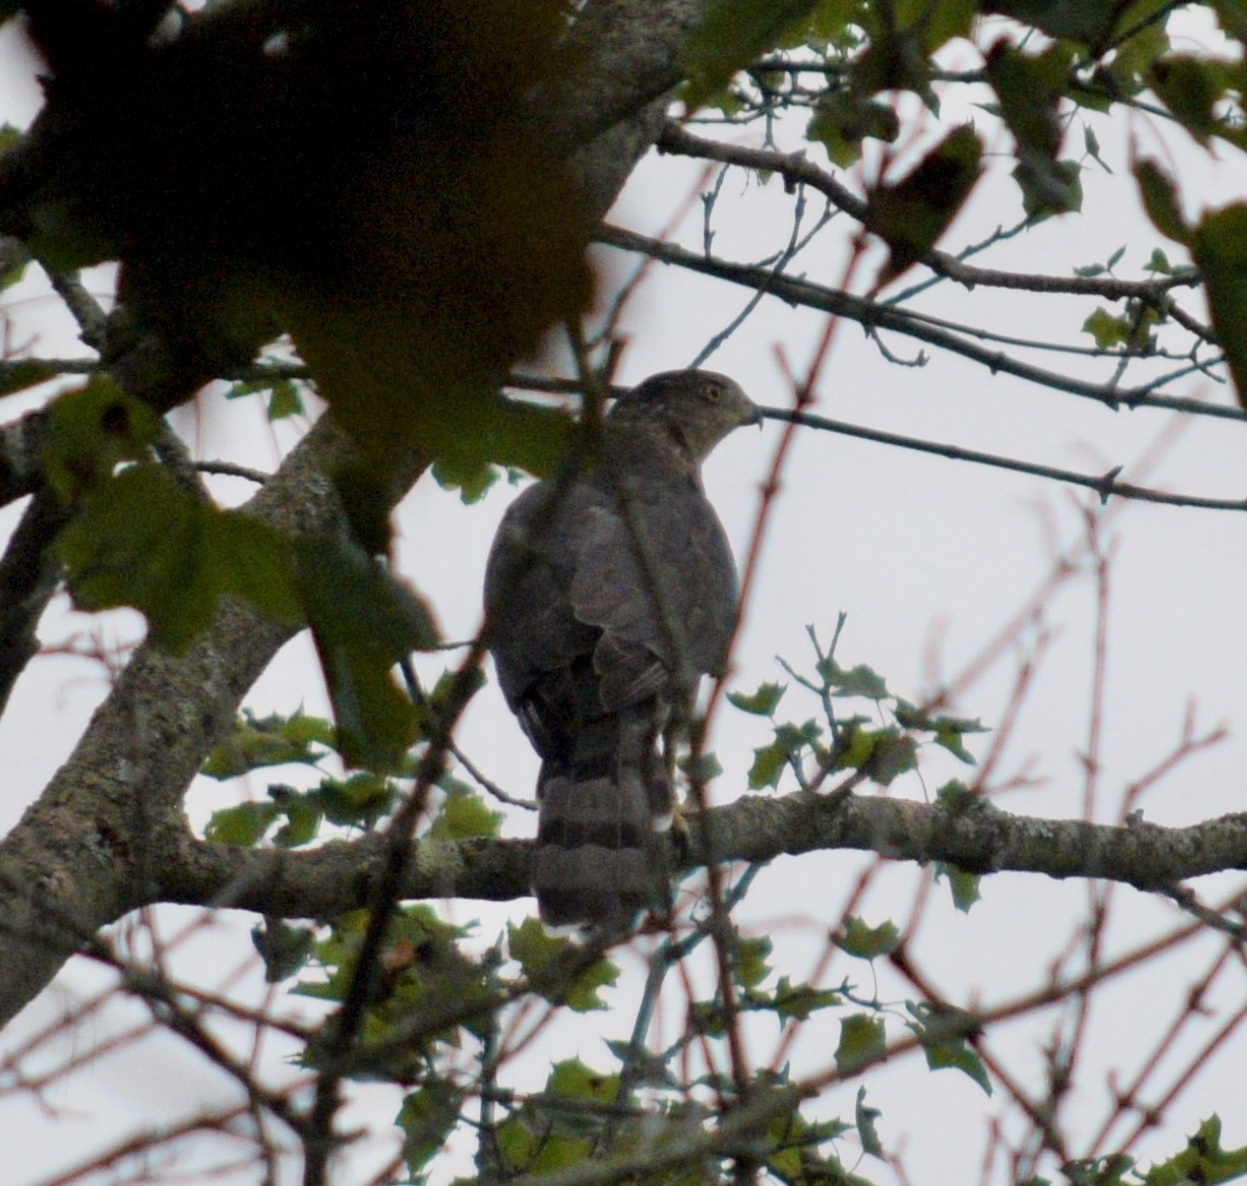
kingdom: Animalia
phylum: Chordata
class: Aves
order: Accipitriformes
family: Accipitridae
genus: Accipiter
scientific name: Accipiter cooperii
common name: Cooper's hawk
